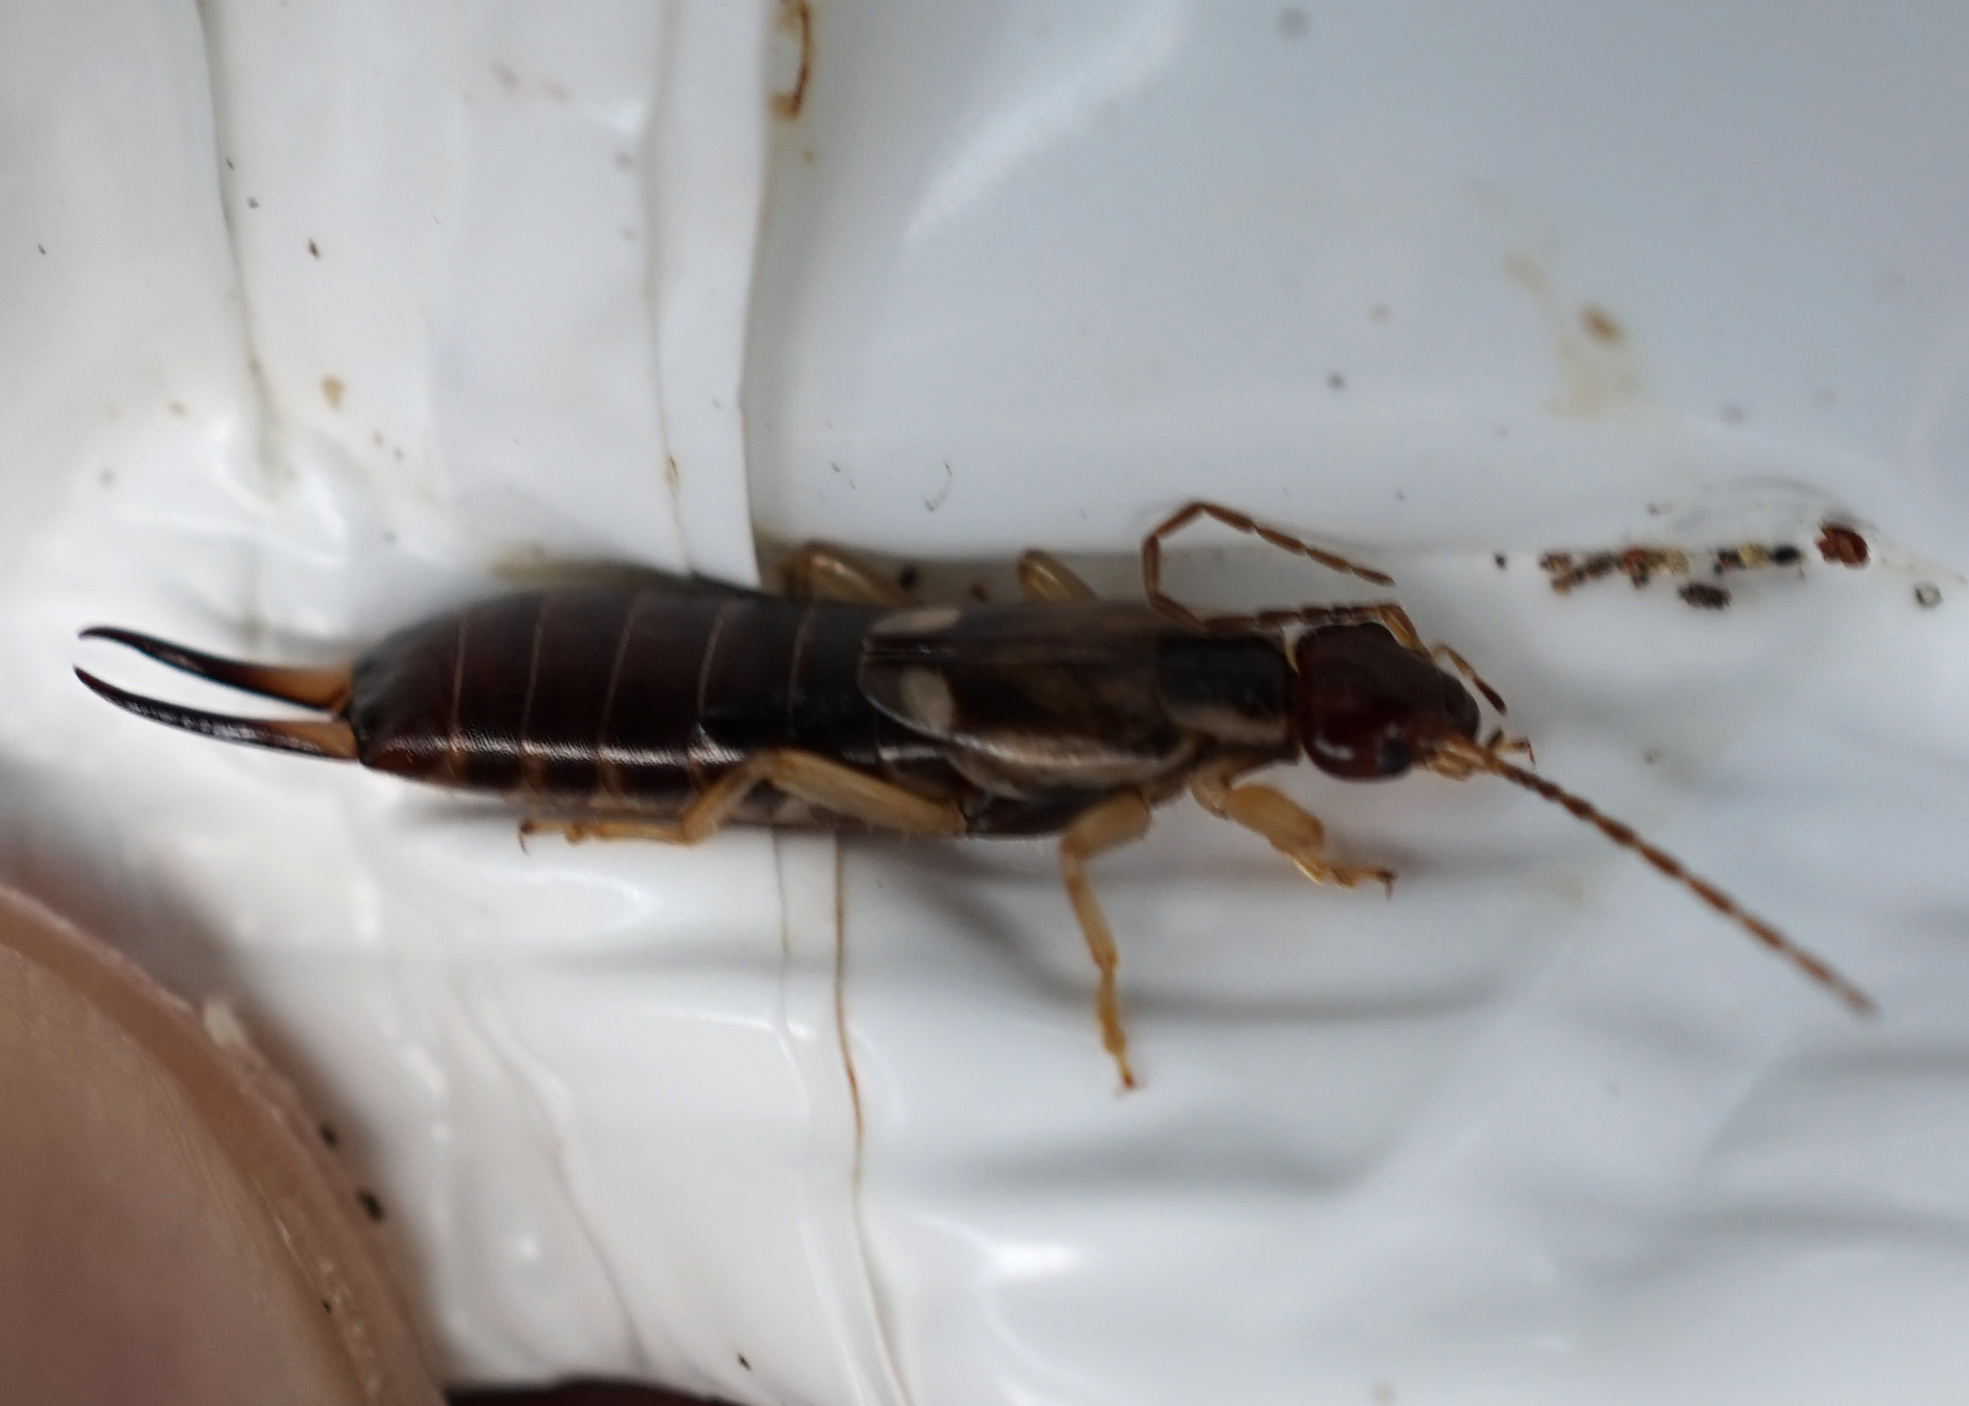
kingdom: Animalia
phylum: Arthropoda
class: Insecta
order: Dermaptera
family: Forficulidae
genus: Forficula
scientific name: Forficula
